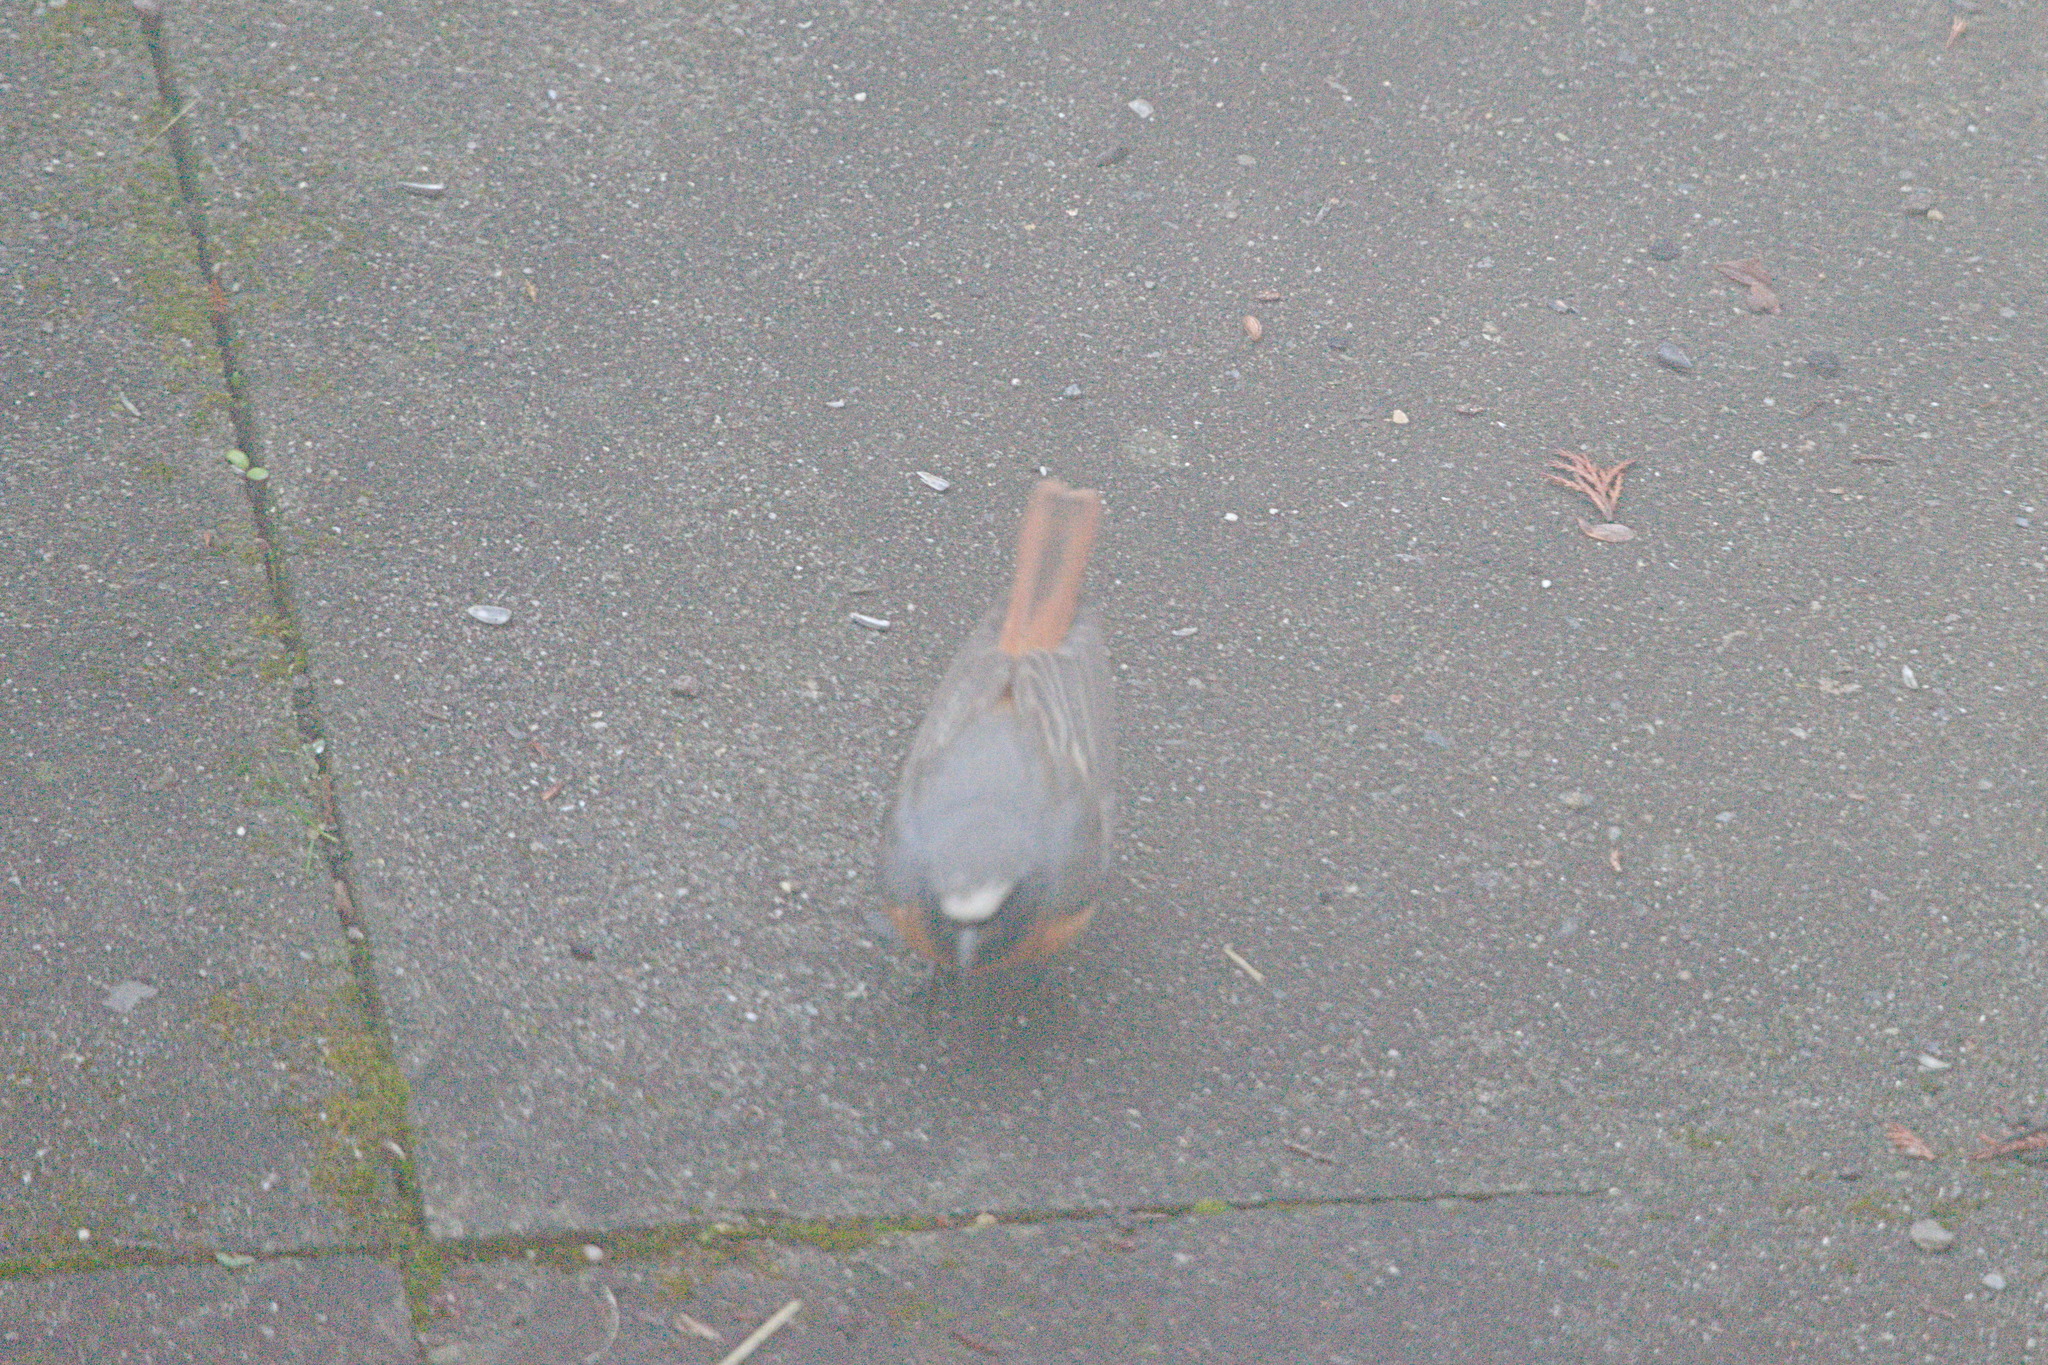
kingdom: Animalia
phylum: Chordata
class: Aves
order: Passeriformes
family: Muscicapidae
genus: Phoenicurus
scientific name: Phoenicurus phoenicurus
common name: Common redstart
